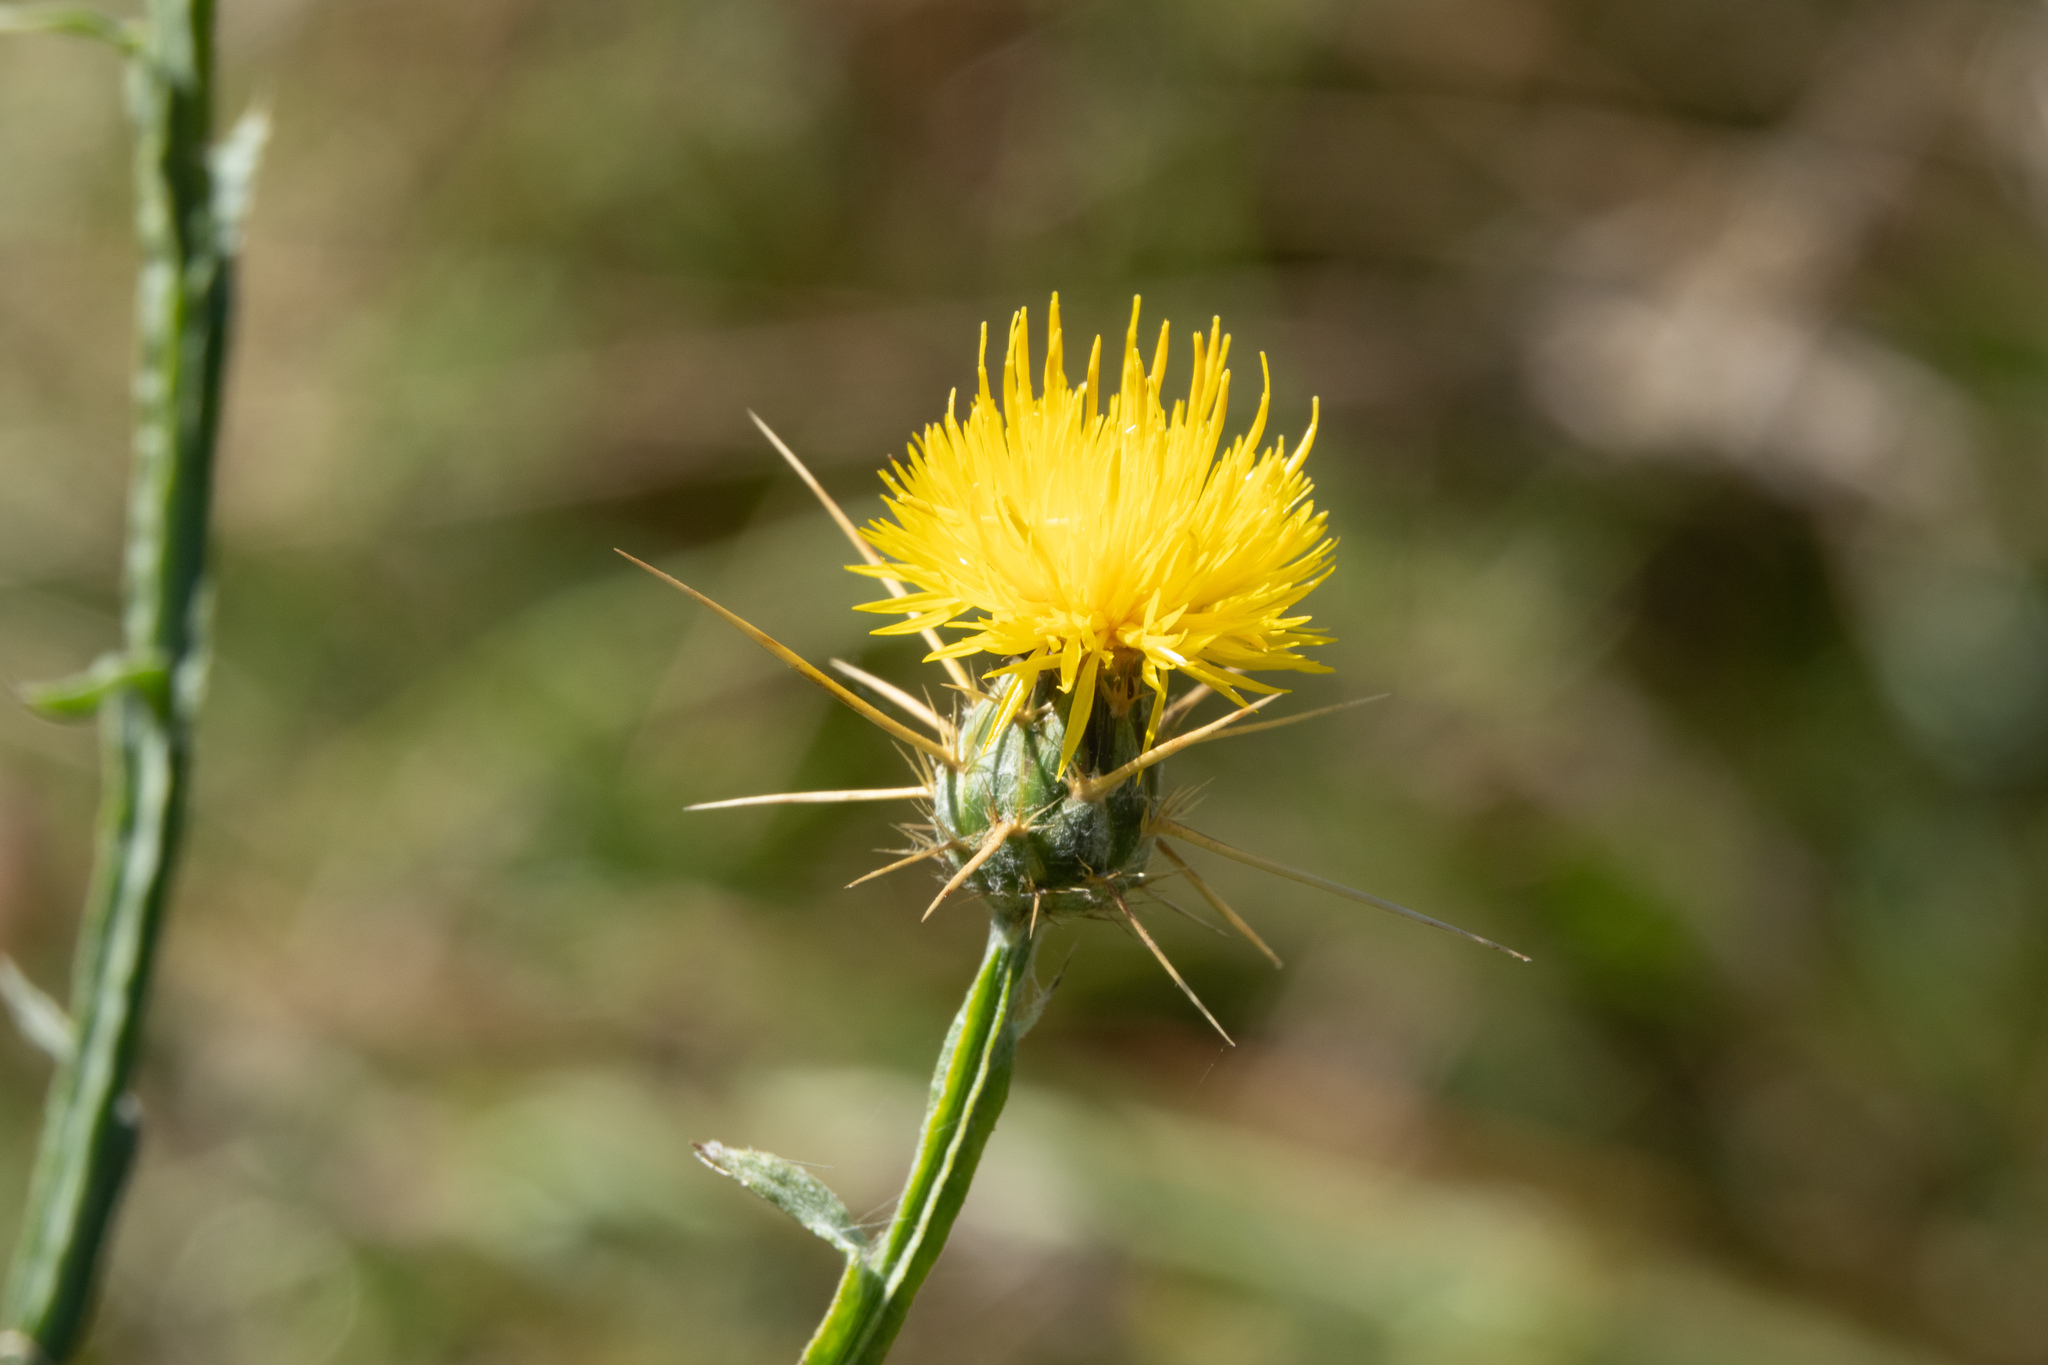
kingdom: Plantae
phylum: Tracheophyta
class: Magnoliopsida
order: Asterales
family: Asteraceae
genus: Centaurea
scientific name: Centaurea solstitialis
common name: Yellow star-thistle
